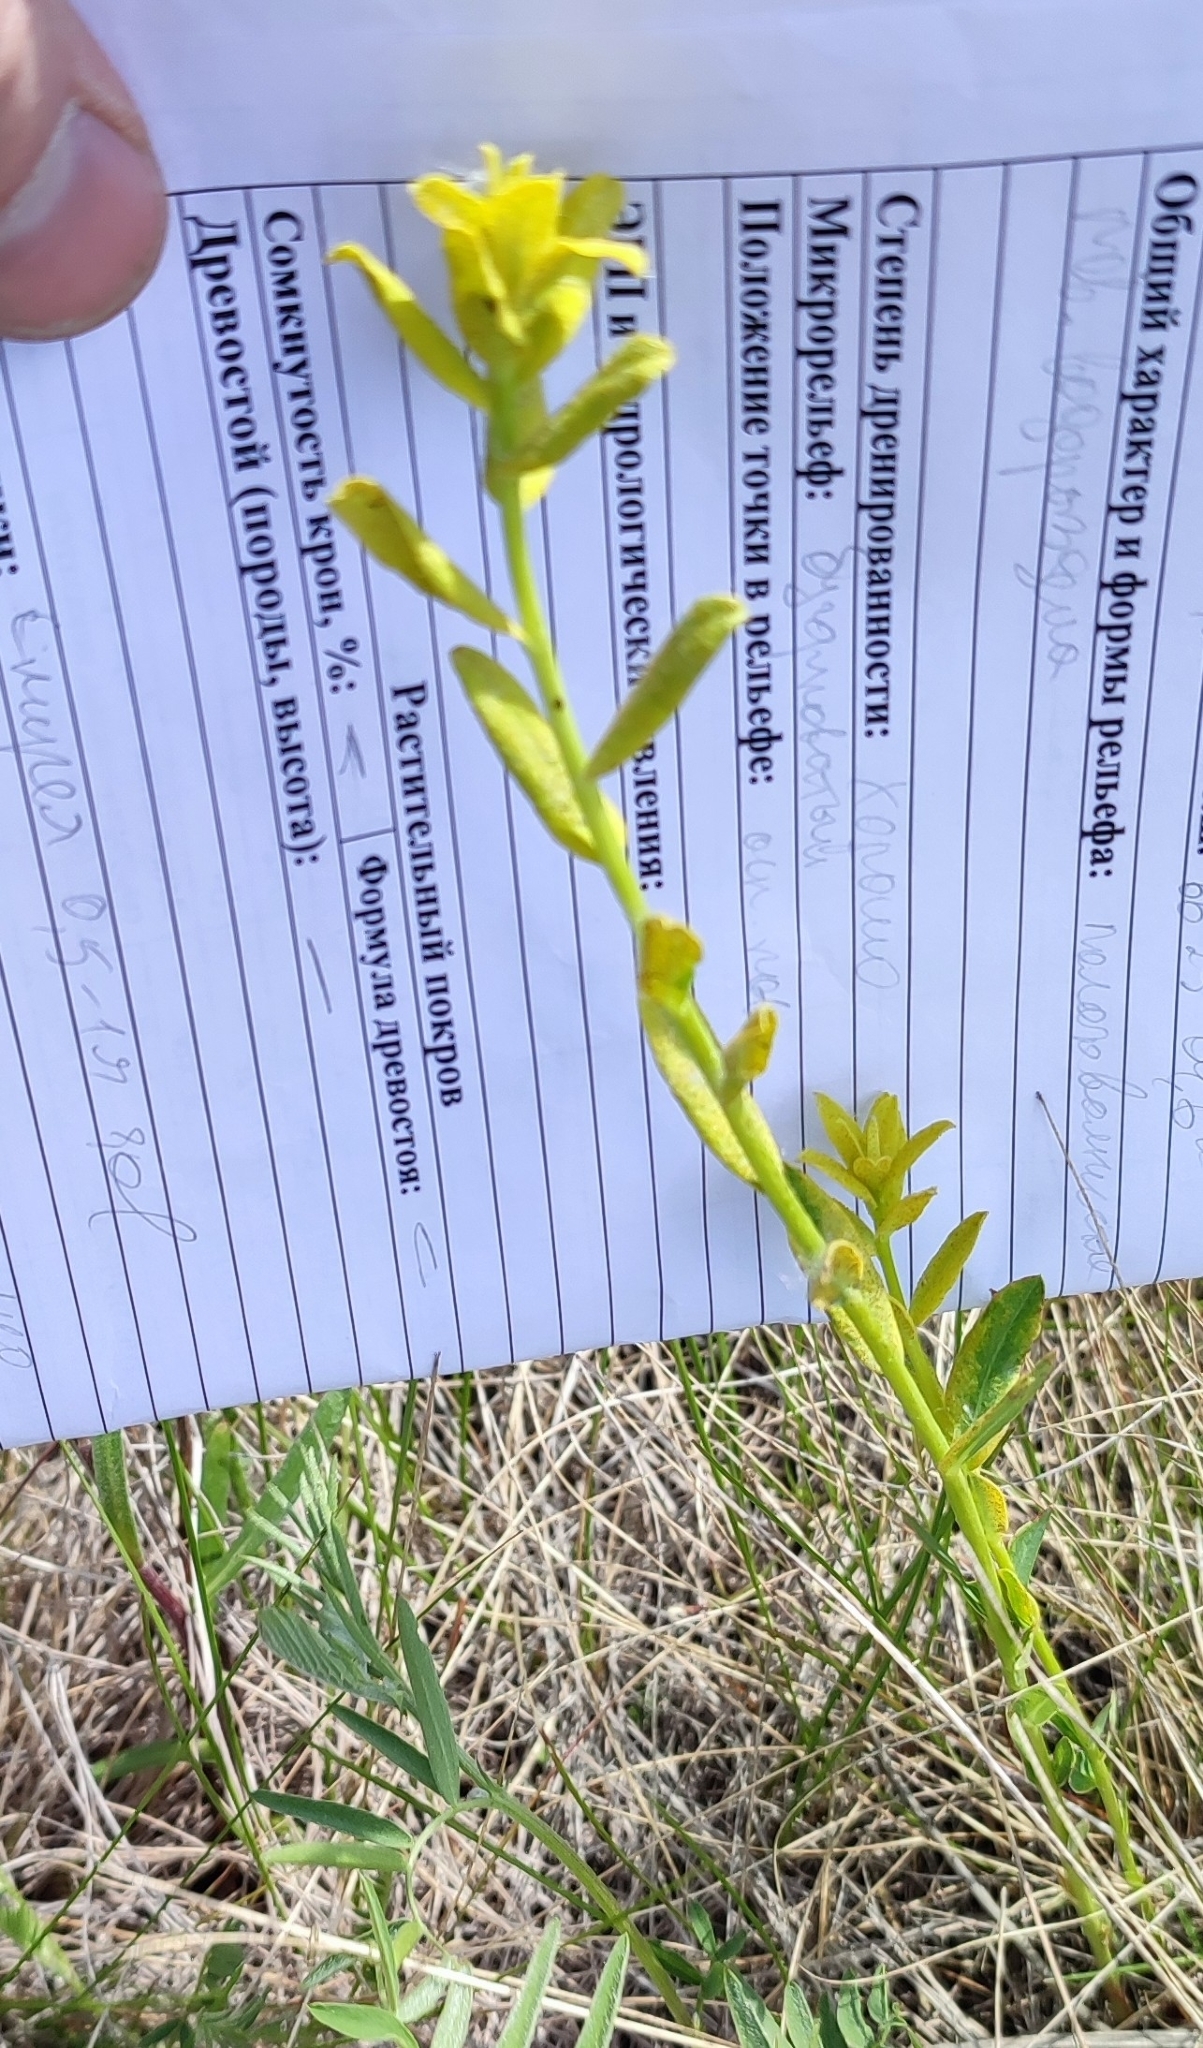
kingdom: Plantae
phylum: Tracheophyta
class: Magnoliopsida
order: Malpighiales
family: Euphorbiaceae
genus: Euphorbia
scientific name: Euphorbia virgata
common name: Leafy spurge
